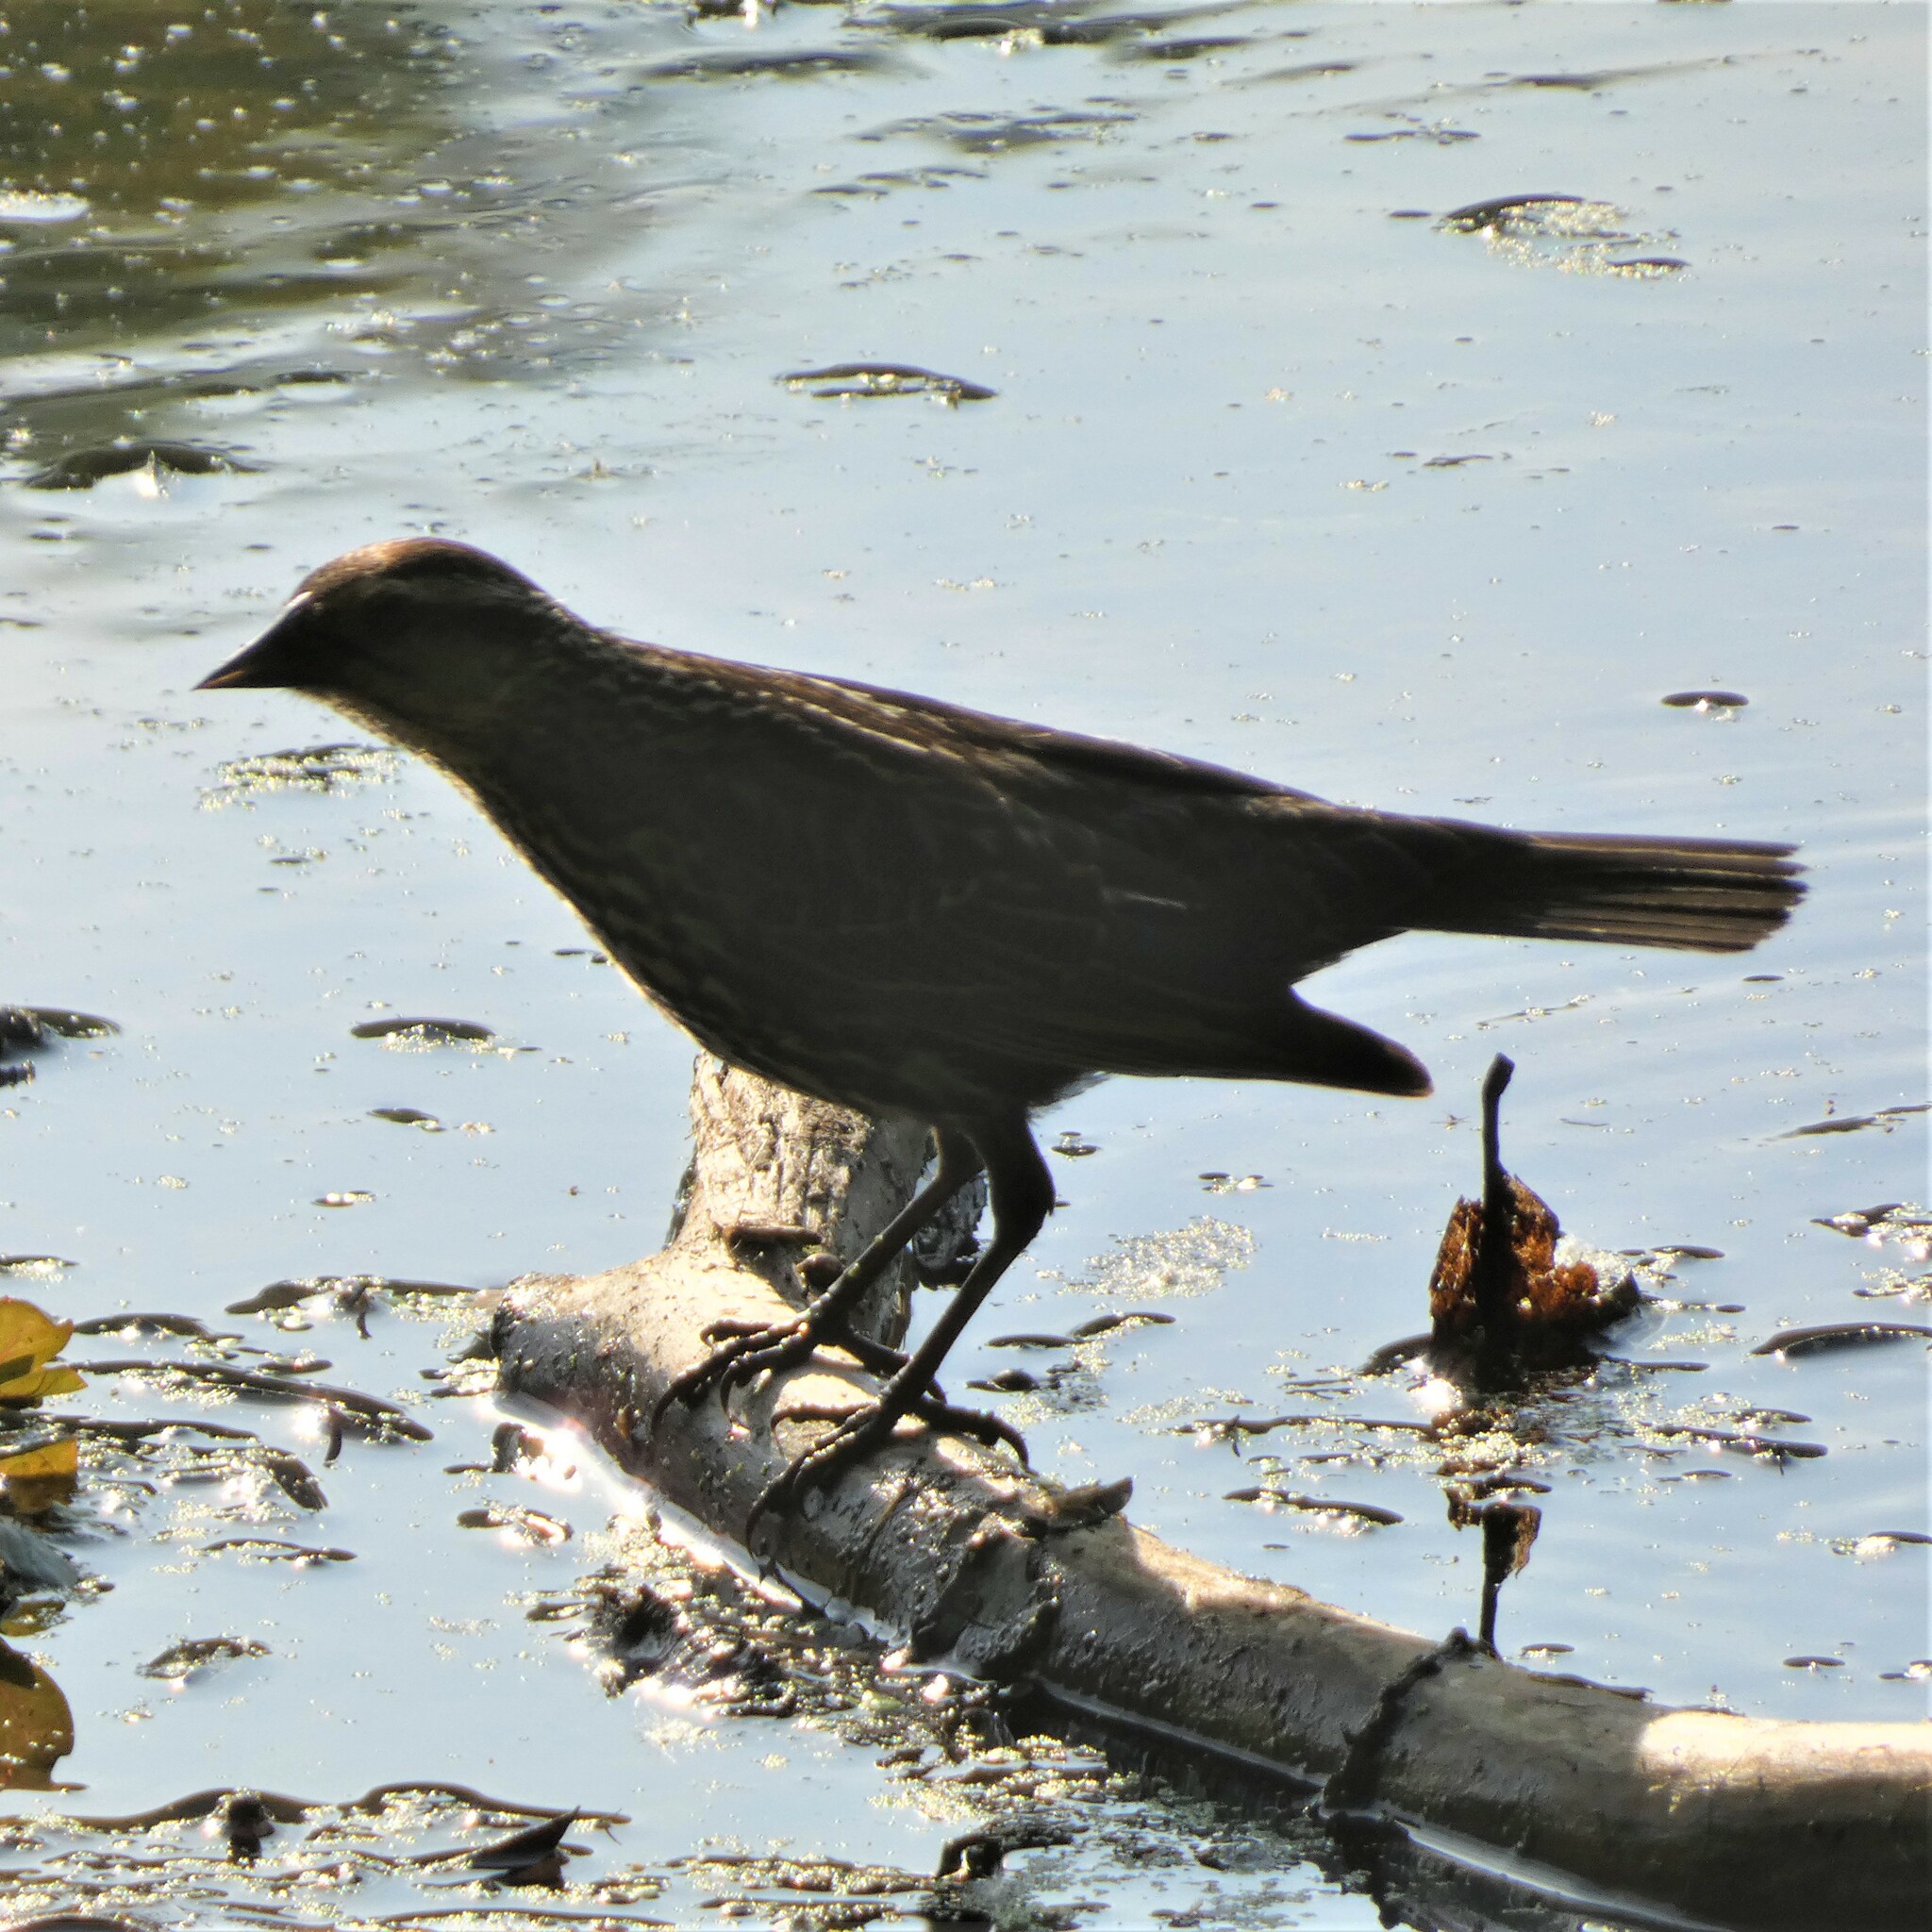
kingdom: Animalia
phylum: Chordata
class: Aves
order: Passeriformes
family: Icteridae
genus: Agelaius
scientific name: Agelaius phoeniceus
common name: Red-winged blackbird
